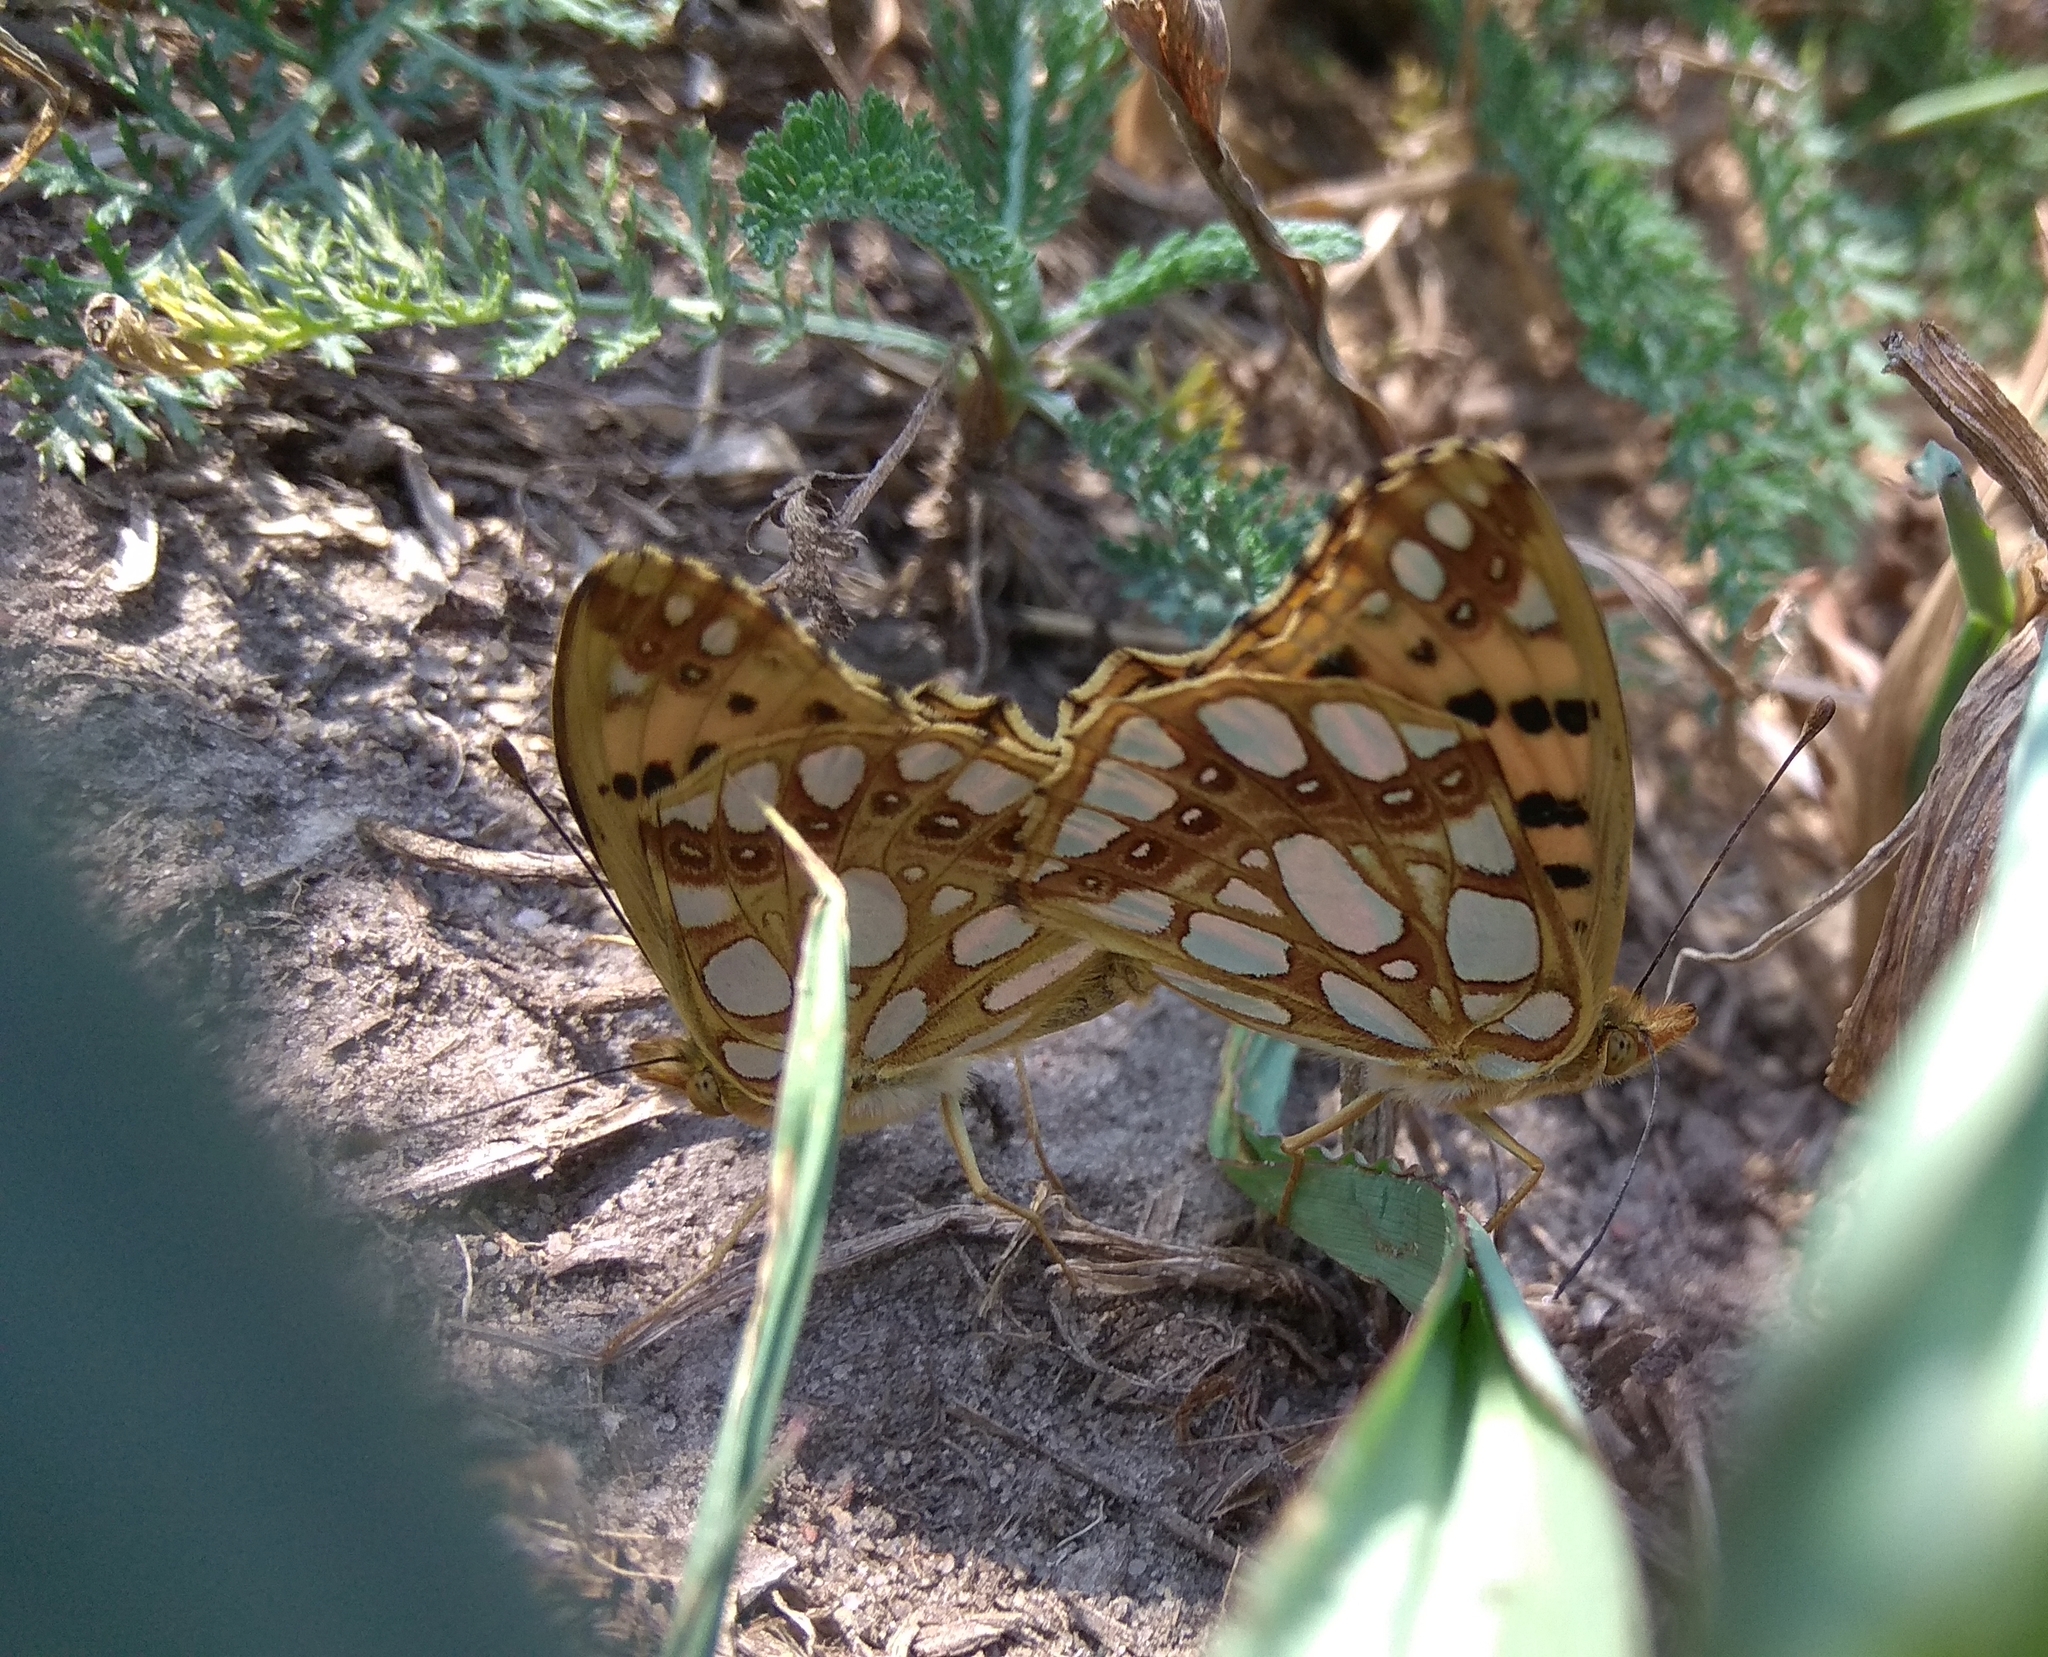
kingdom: Animalia
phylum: Arthropoda
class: Insecta
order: Lepidoptera
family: Nymphalidae
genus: Issoria
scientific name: Issoria lathonia
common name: Queen of spain fritillary
